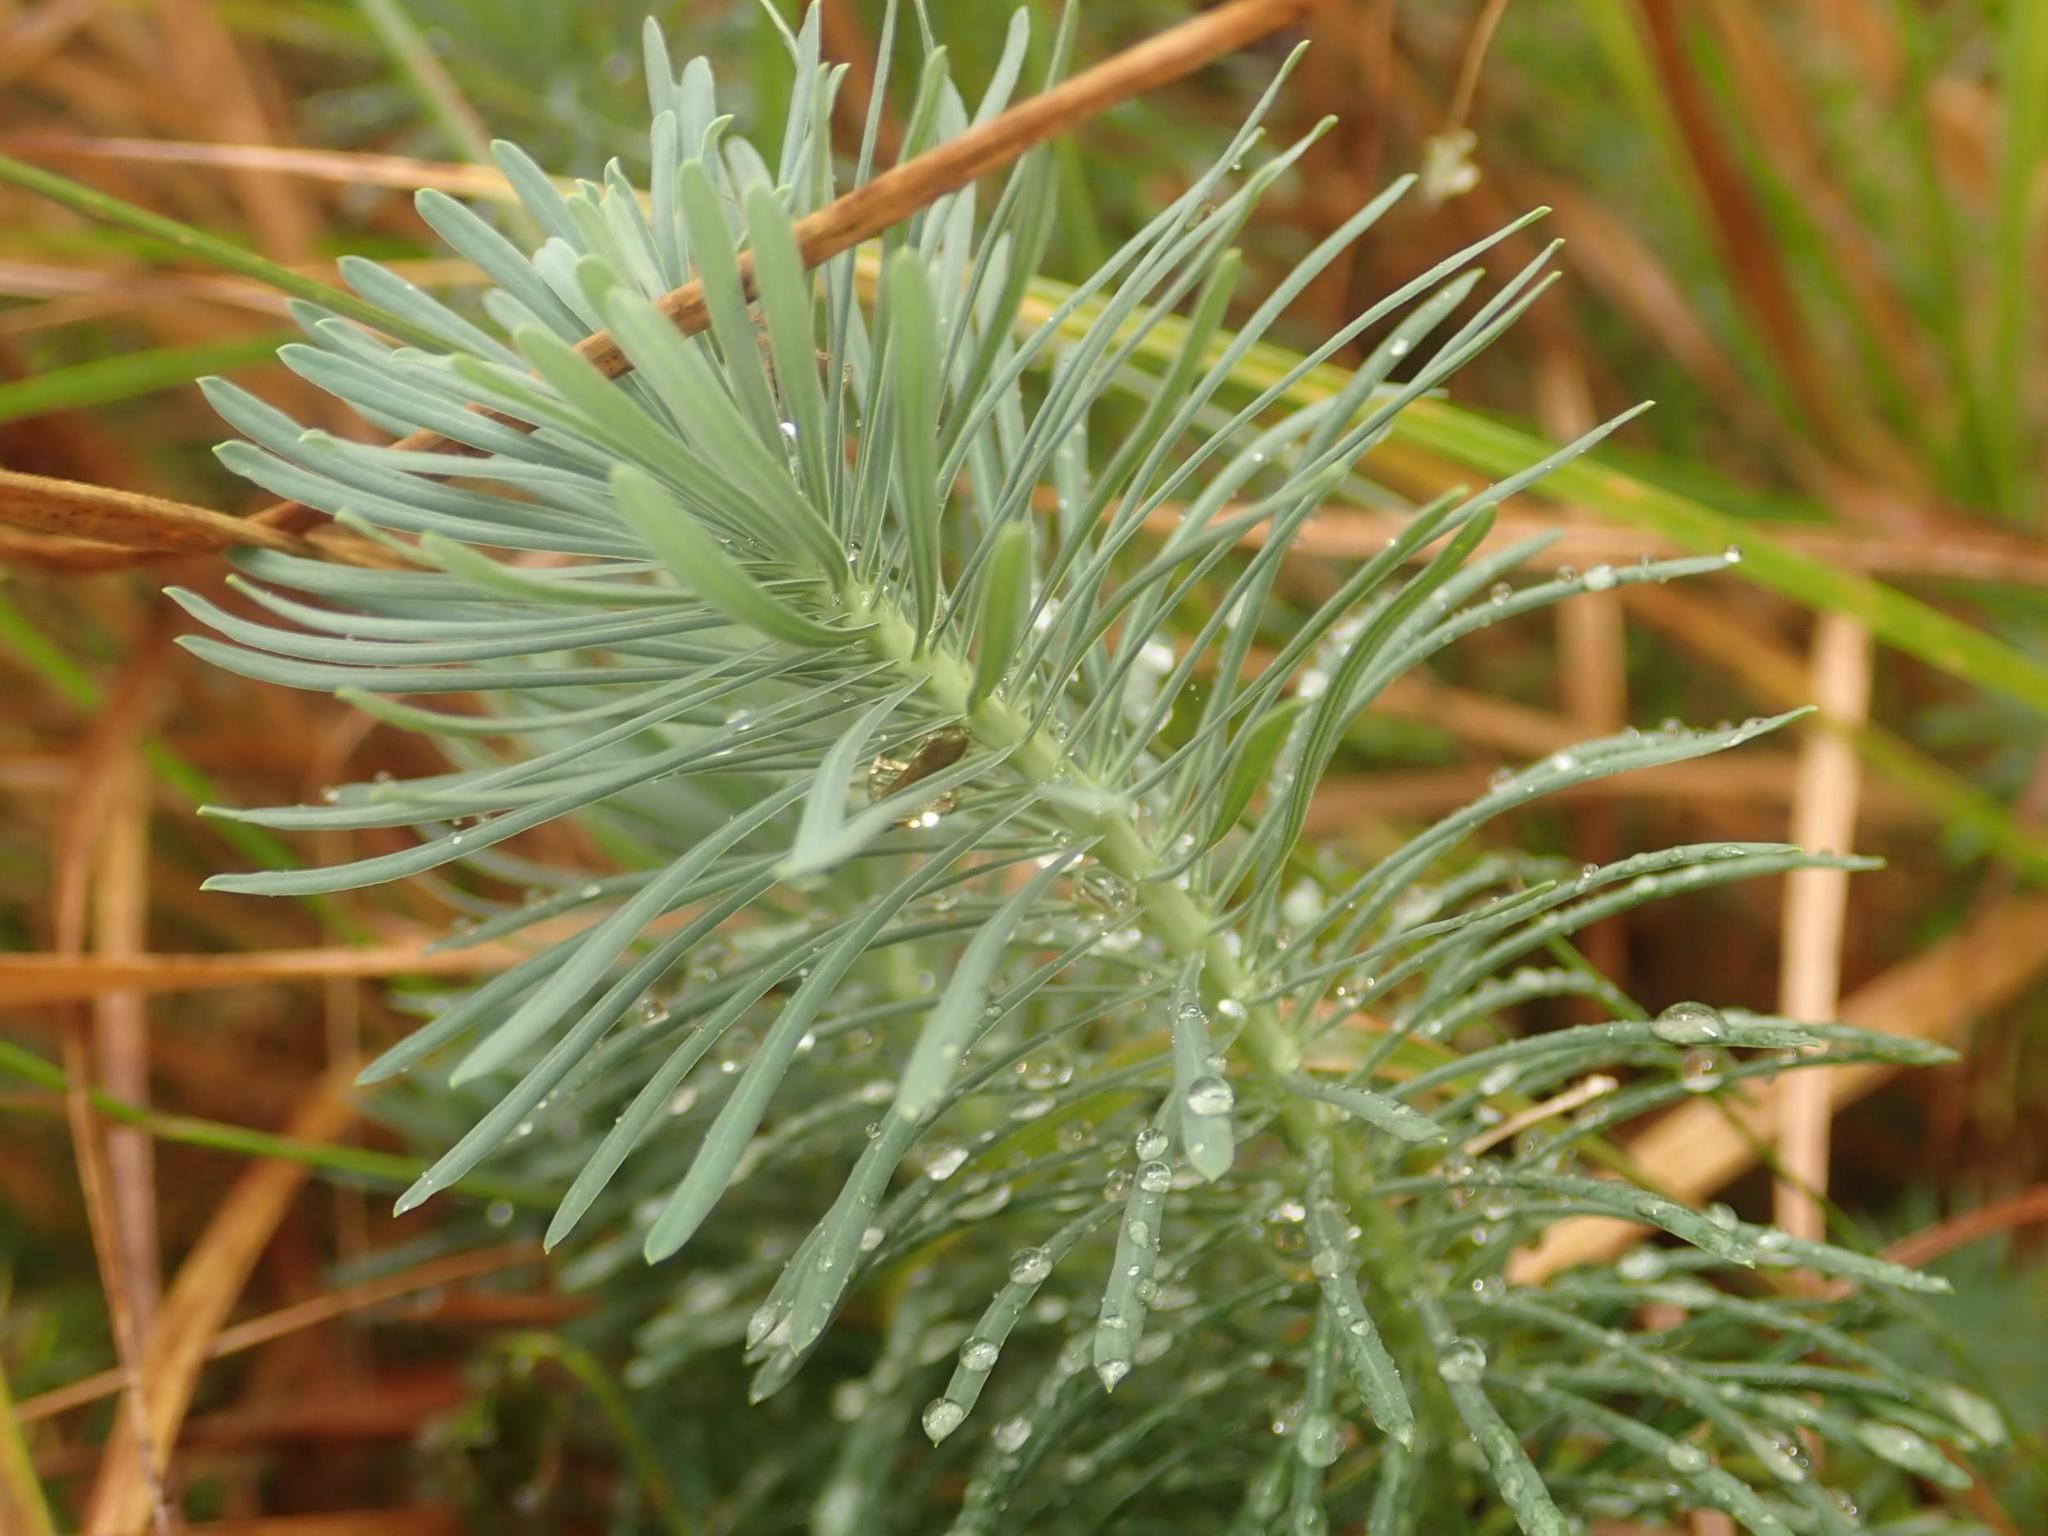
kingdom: Plantae
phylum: Tracheophyta
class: Magnoliopsida
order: Malpighiales
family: Euphorbiaceae
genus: Euphorbia
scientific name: Euphorbia cyparissias
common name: Cypress spurge
